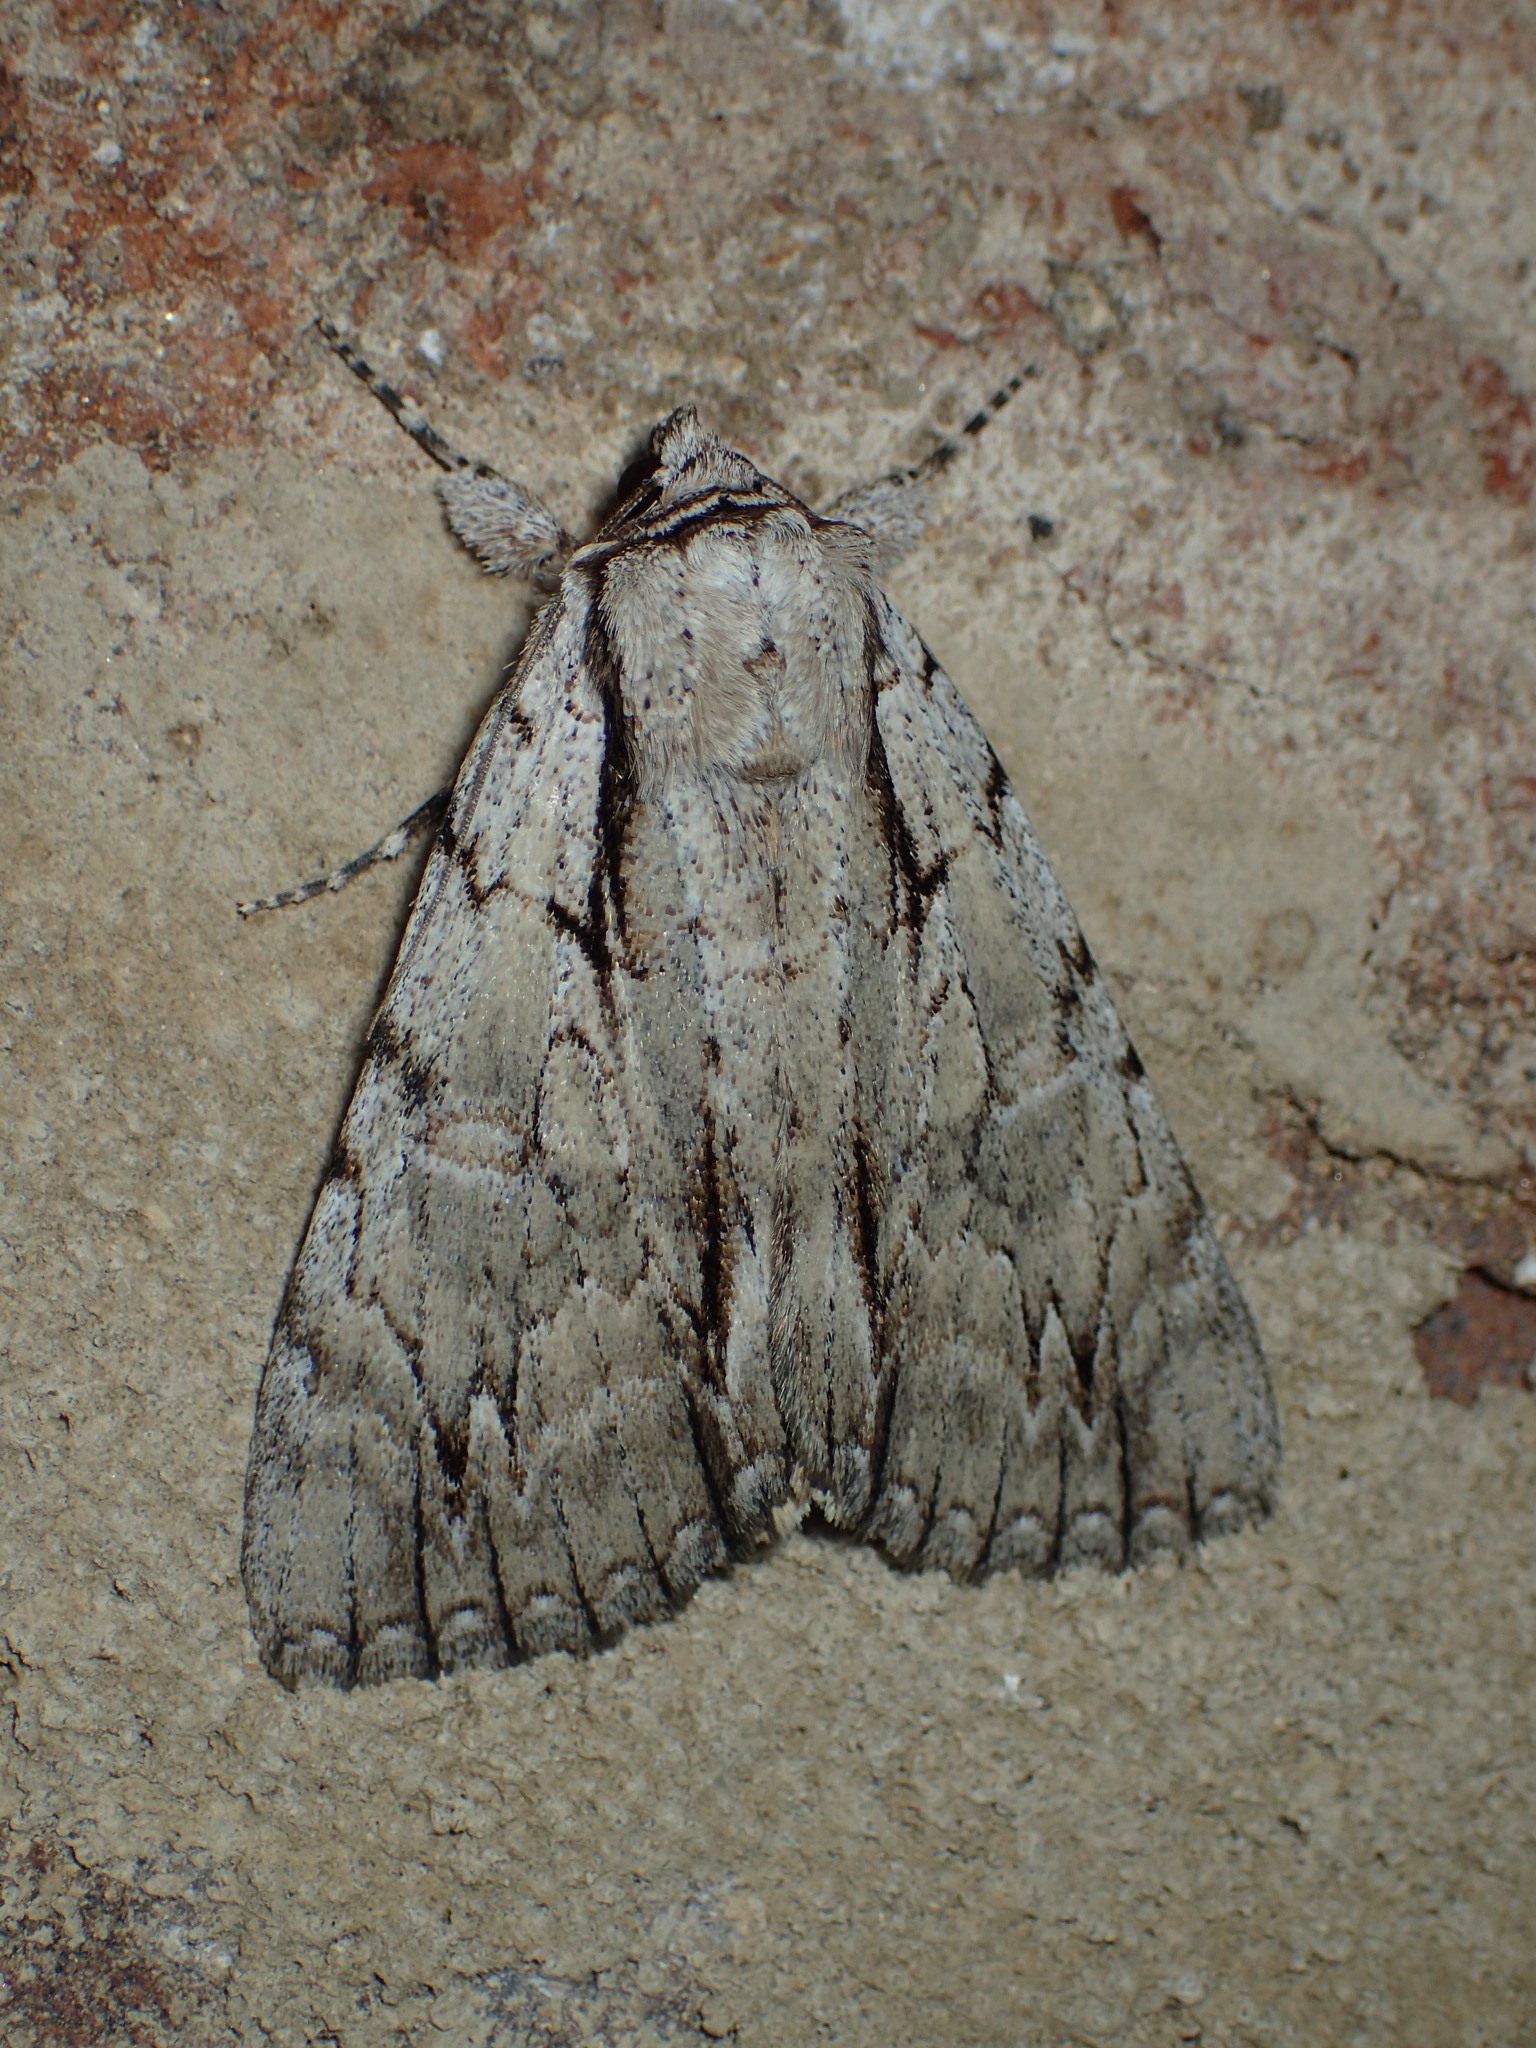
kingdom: Animalia
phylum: Arthropoda
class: Insecta
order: Lepidoptera
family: Erebidae
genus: Catocala
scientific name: Catocala clintonii
